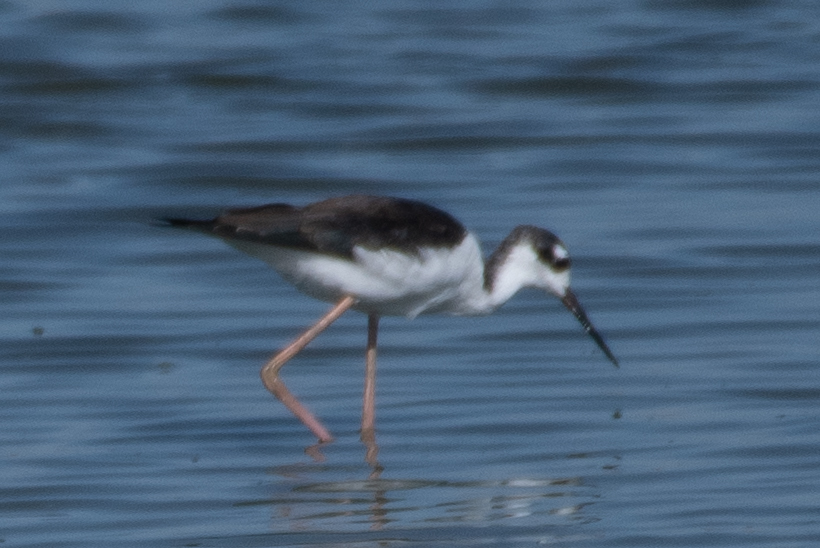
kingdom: Animalia
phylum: Chordata
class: Aves
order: Charadriiformes
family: Recurvirostridae
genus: Himantopus
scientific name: Himantopus mexicanus
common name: Black-necked stilt
